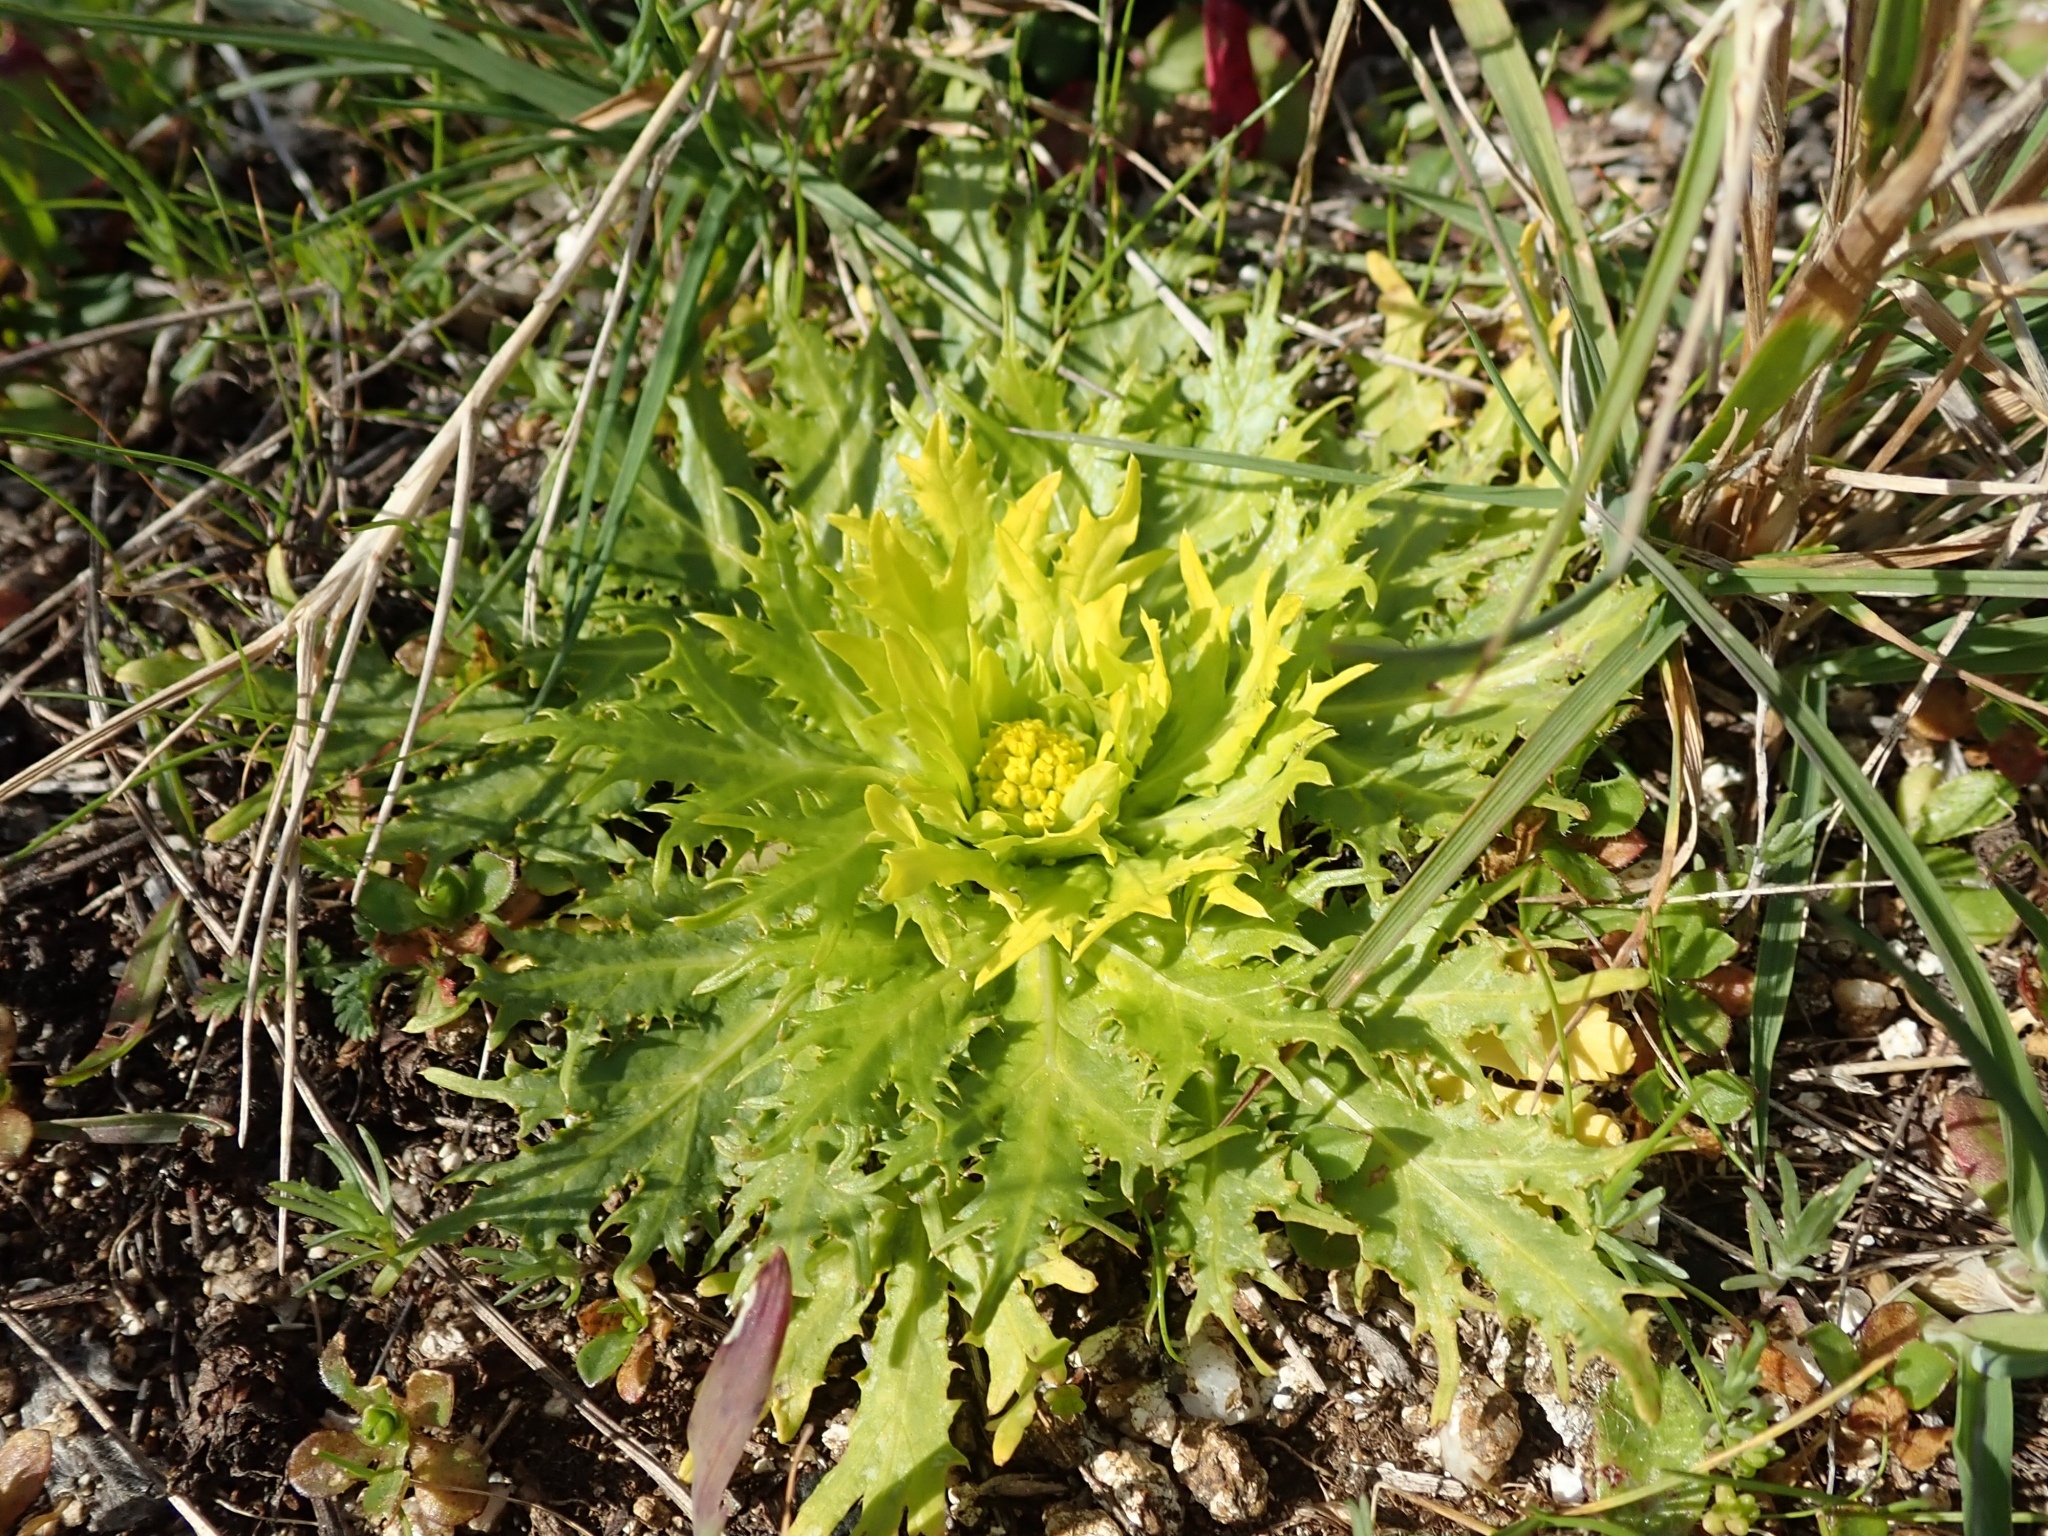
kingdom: Plantae
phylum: Tracheophyta
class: Magnoliopsida
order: Apiales
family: Apiaceae
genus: Sanicula
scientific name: Sanicula arctopoides
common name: Footsteps-of-spring
